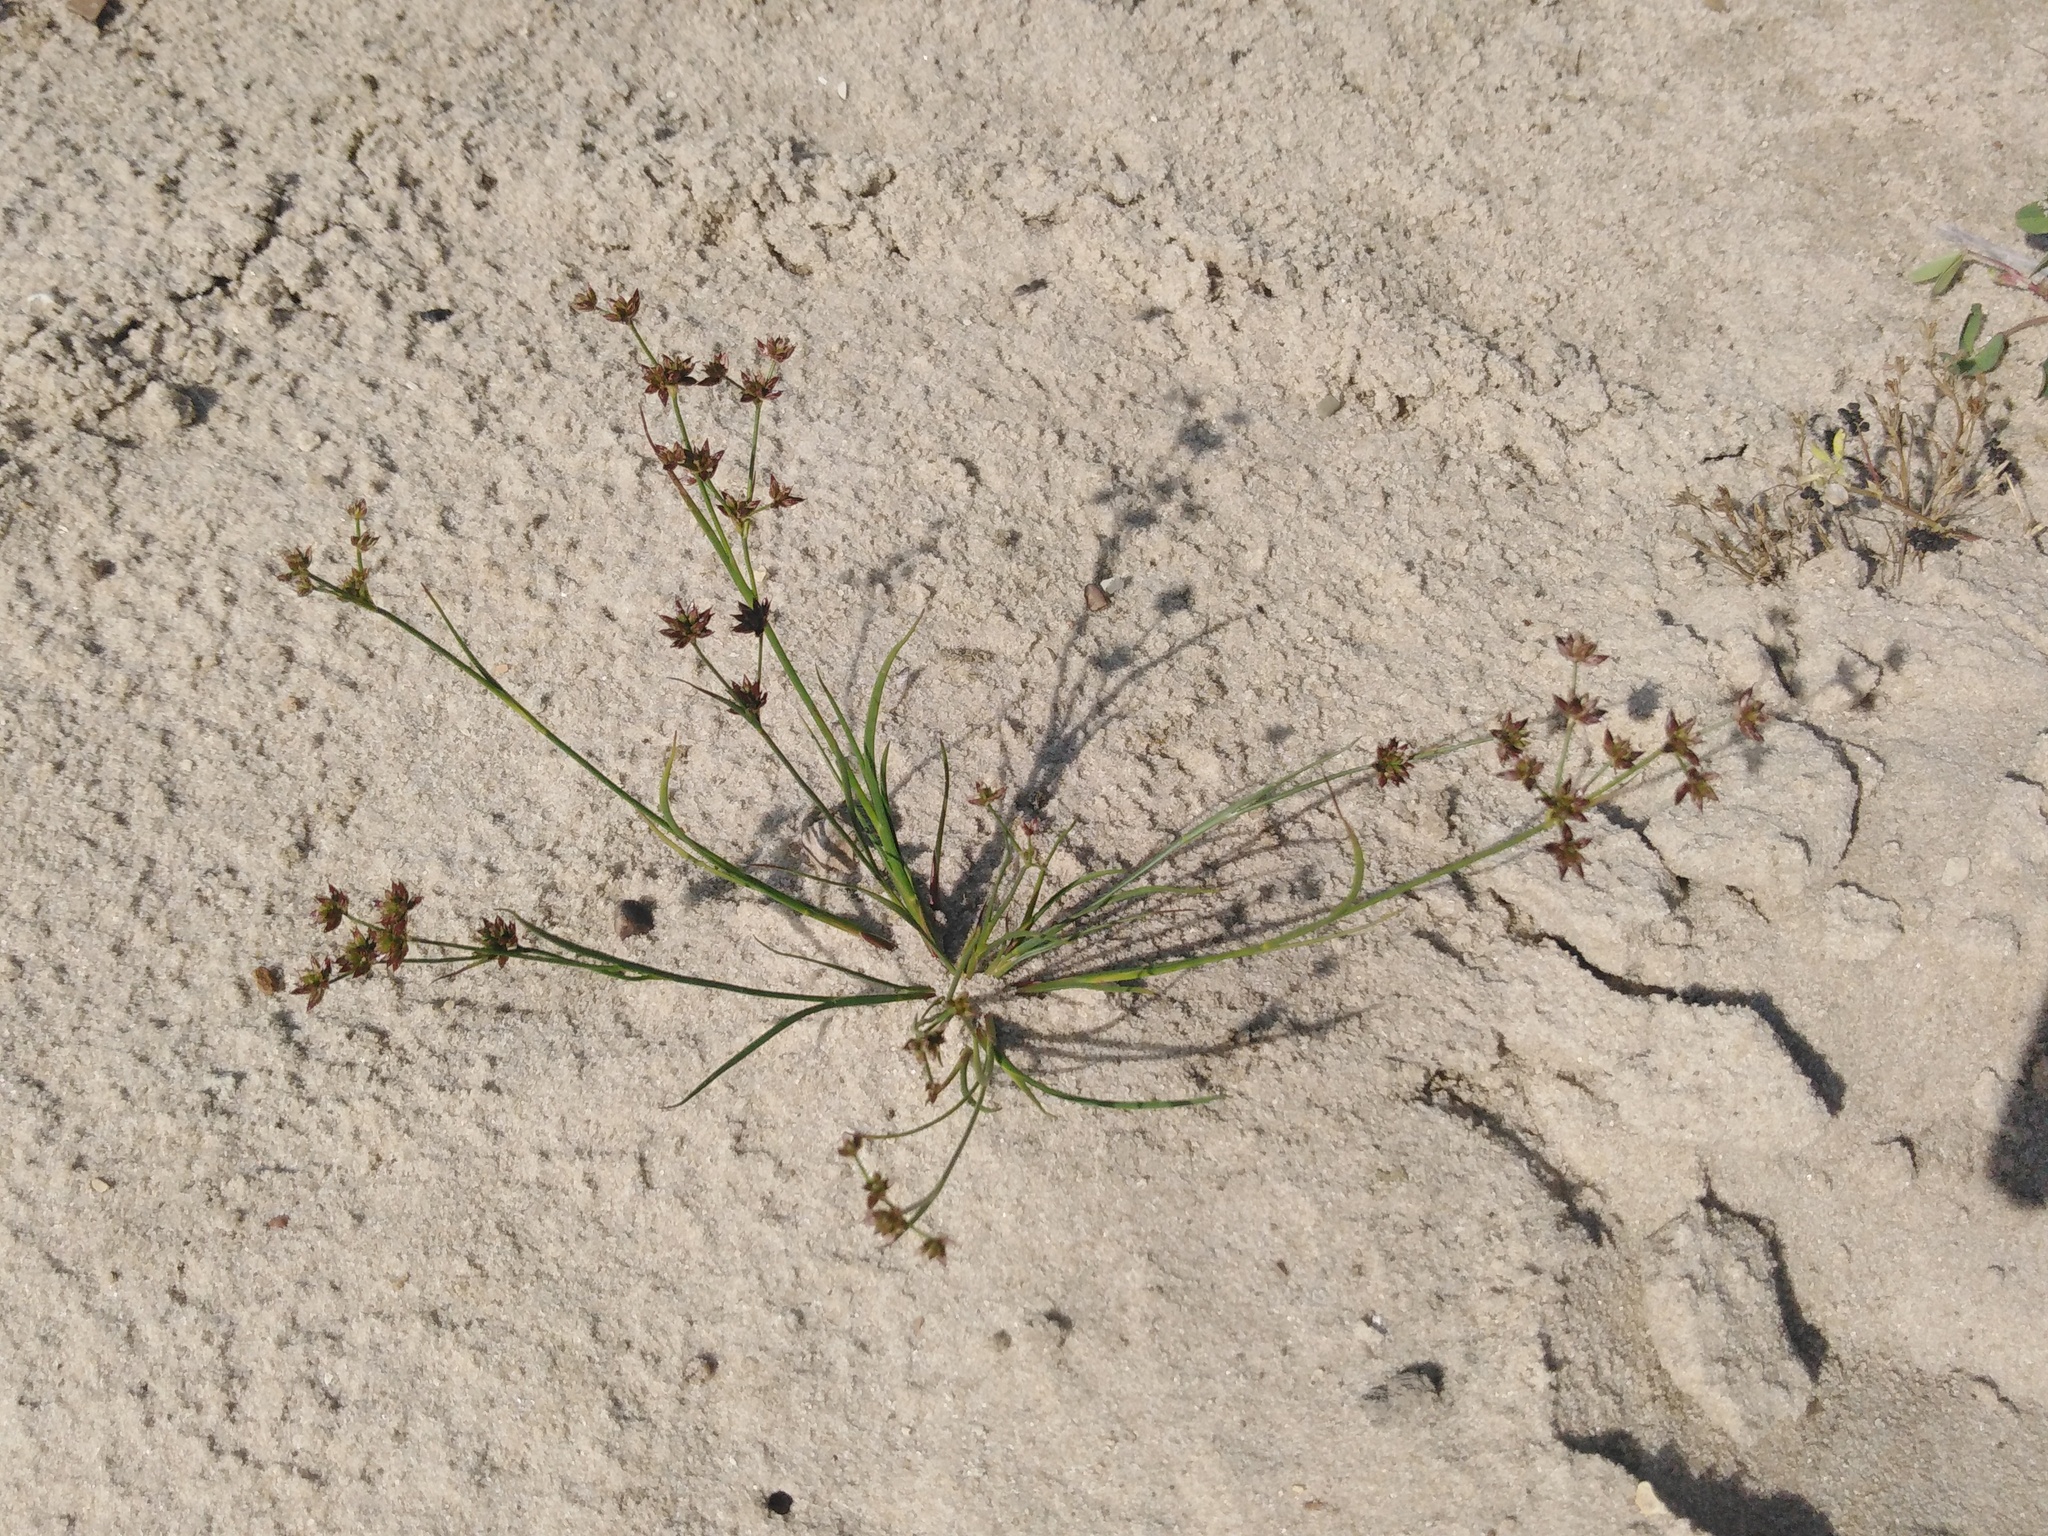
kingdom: Plantae
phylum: Tracheophyta
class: Liliopsida
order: Poales
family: Juncaceae
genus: Juncus
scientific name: Juncus articulatus
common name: Jointed rush
